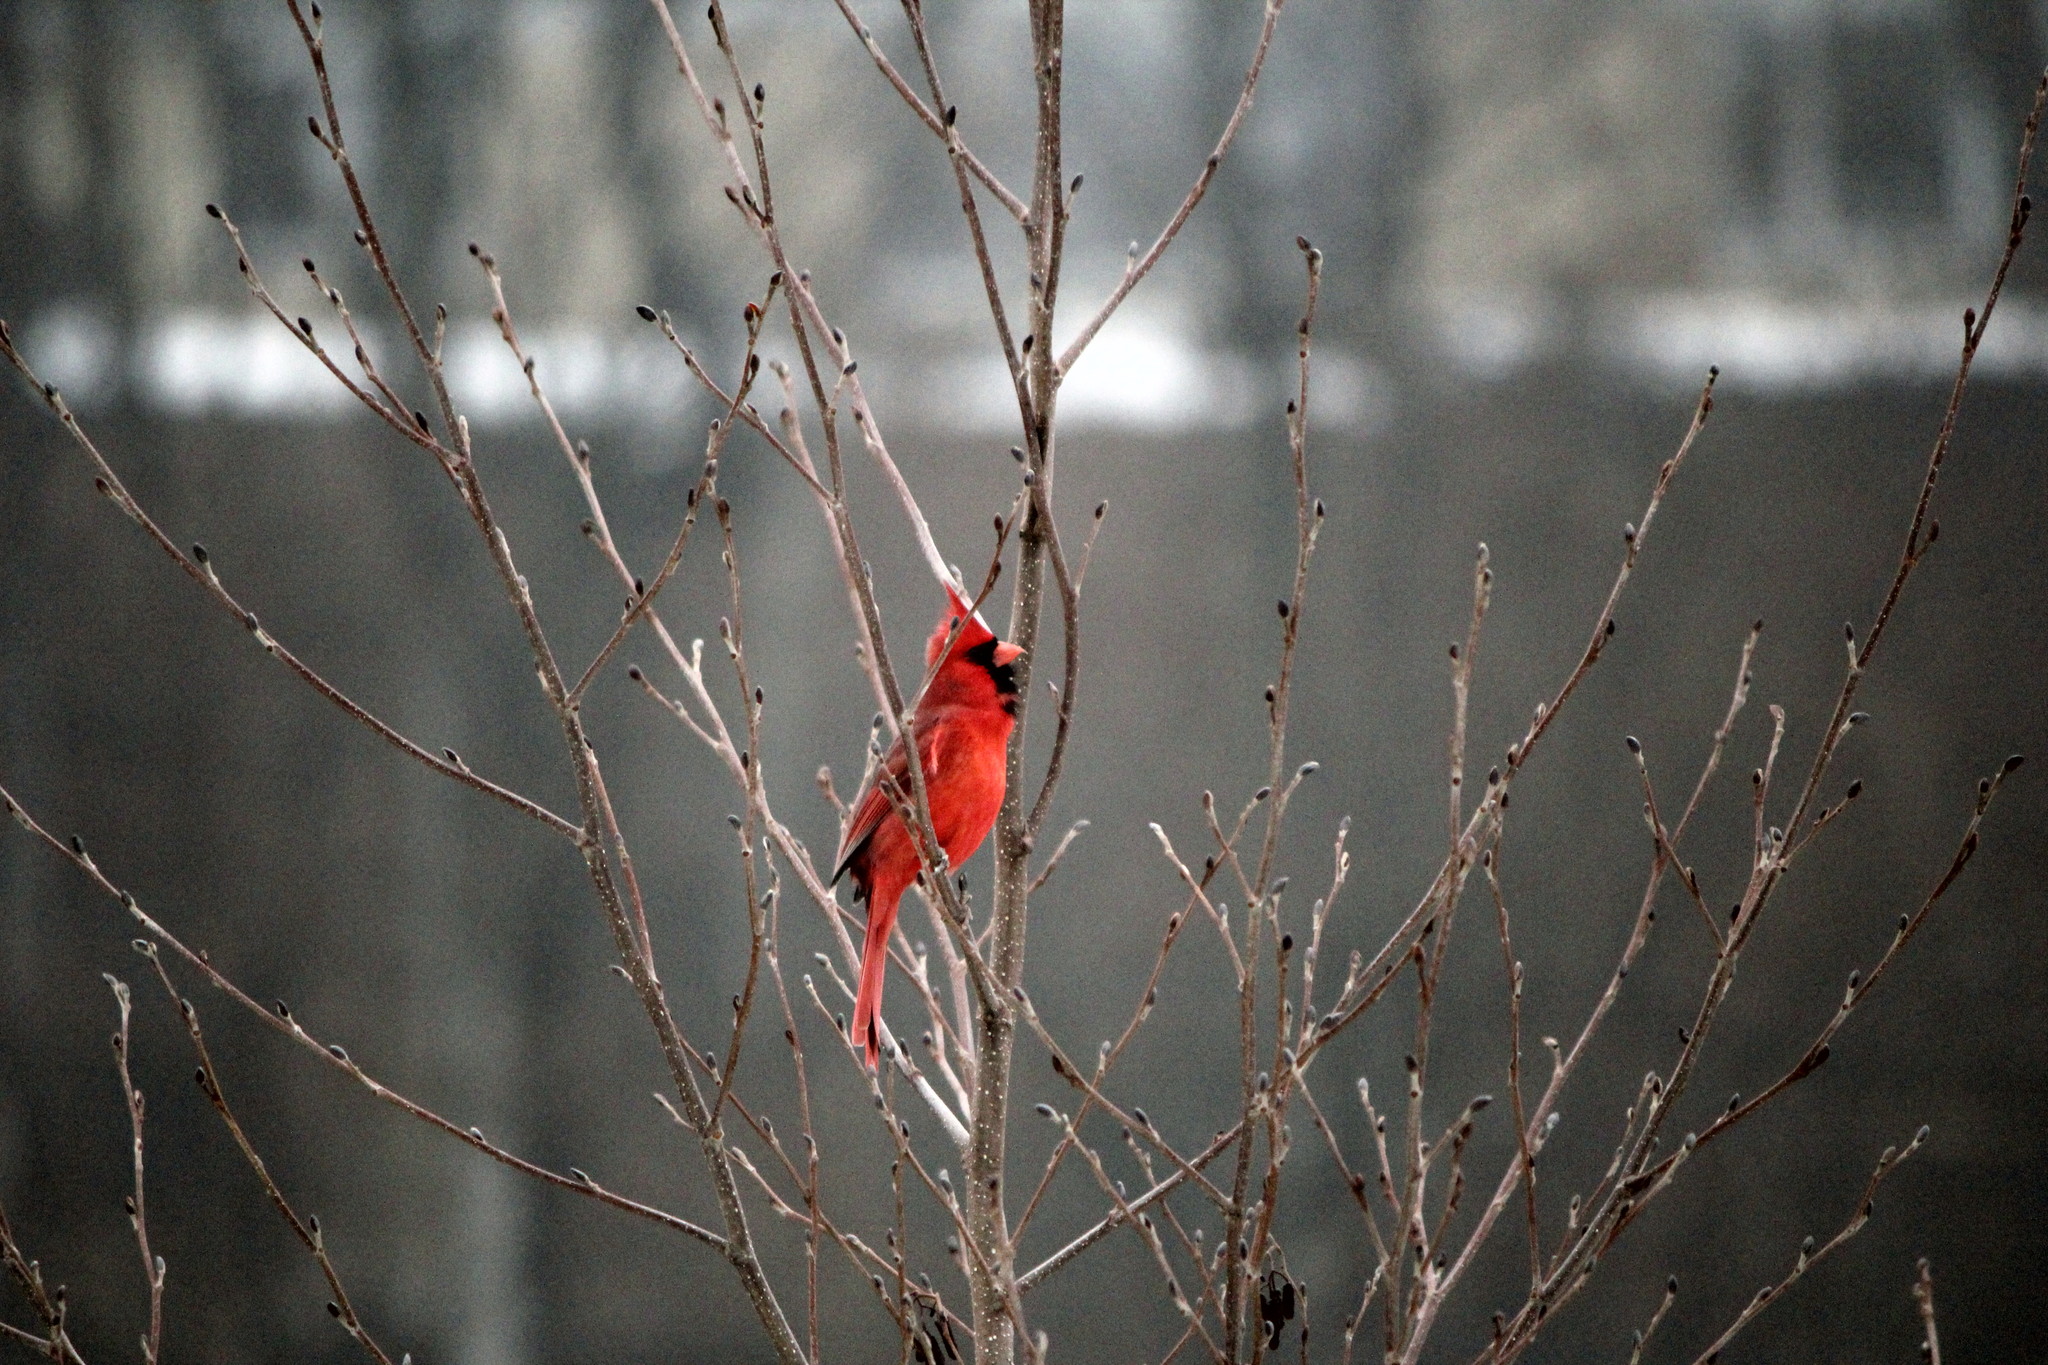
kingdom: Animalia
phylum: Chordata
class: Aves
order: Passeriformes
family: Cardinalidae
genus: Cardinalis
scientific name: Cardinalis cardinalis
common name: Northern cardinal
